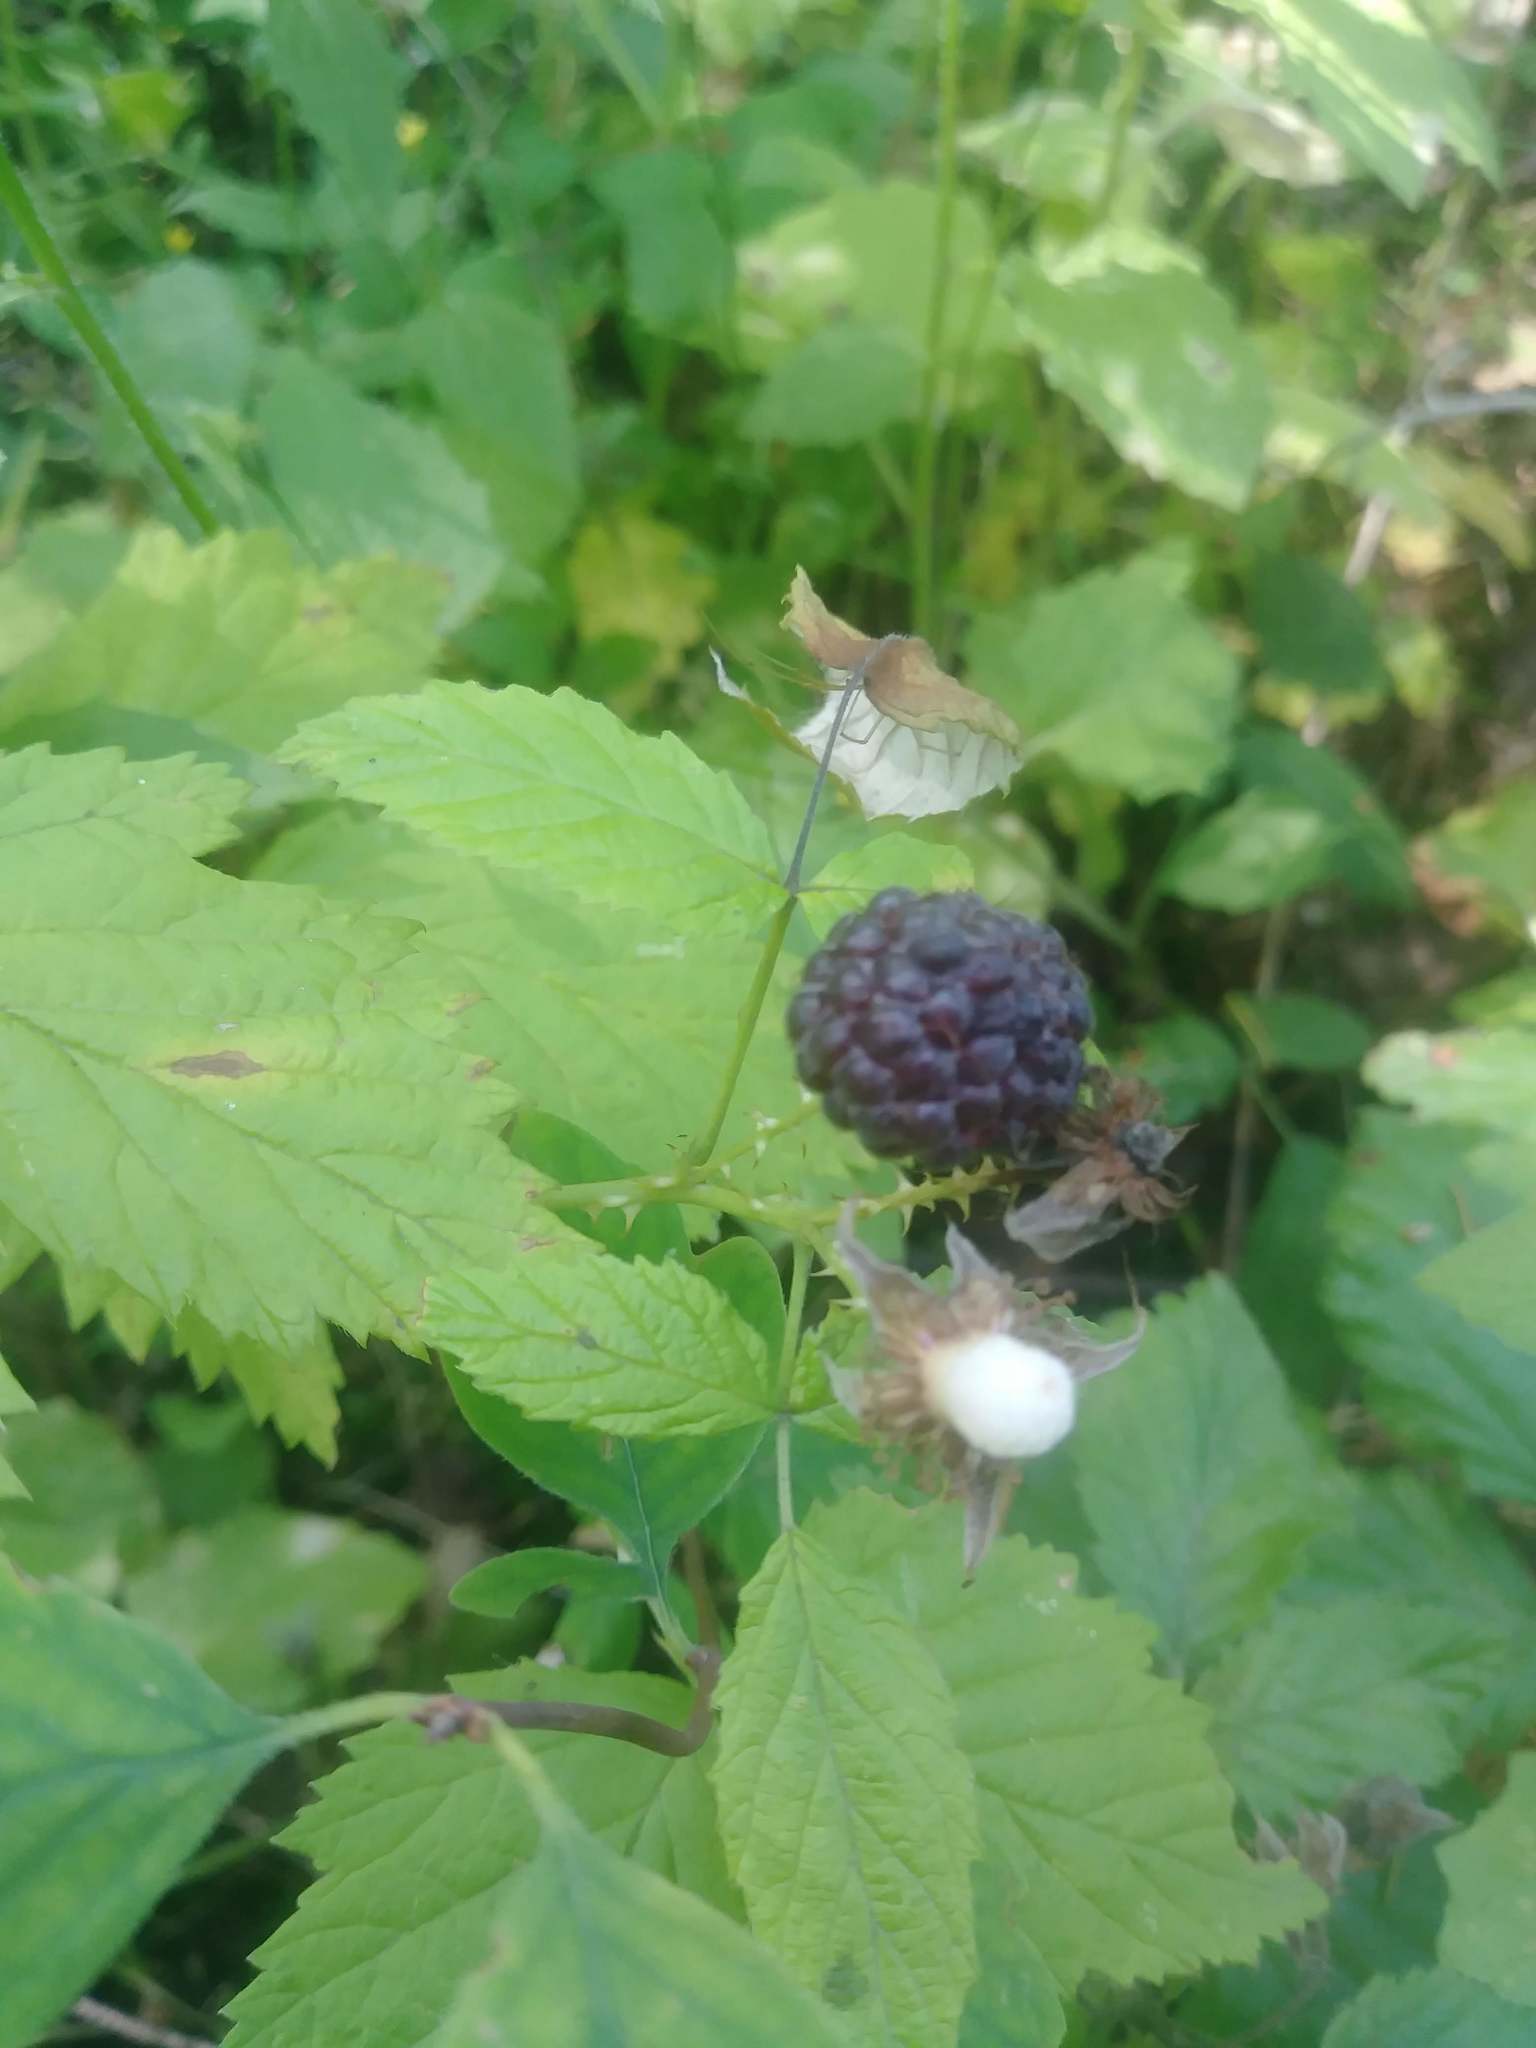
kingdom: Plantae
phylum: Tracheophyta
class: Magnoliopsida
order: Rosales
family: Rosaceae
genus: Rubus
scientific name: Rubus leucodermis
